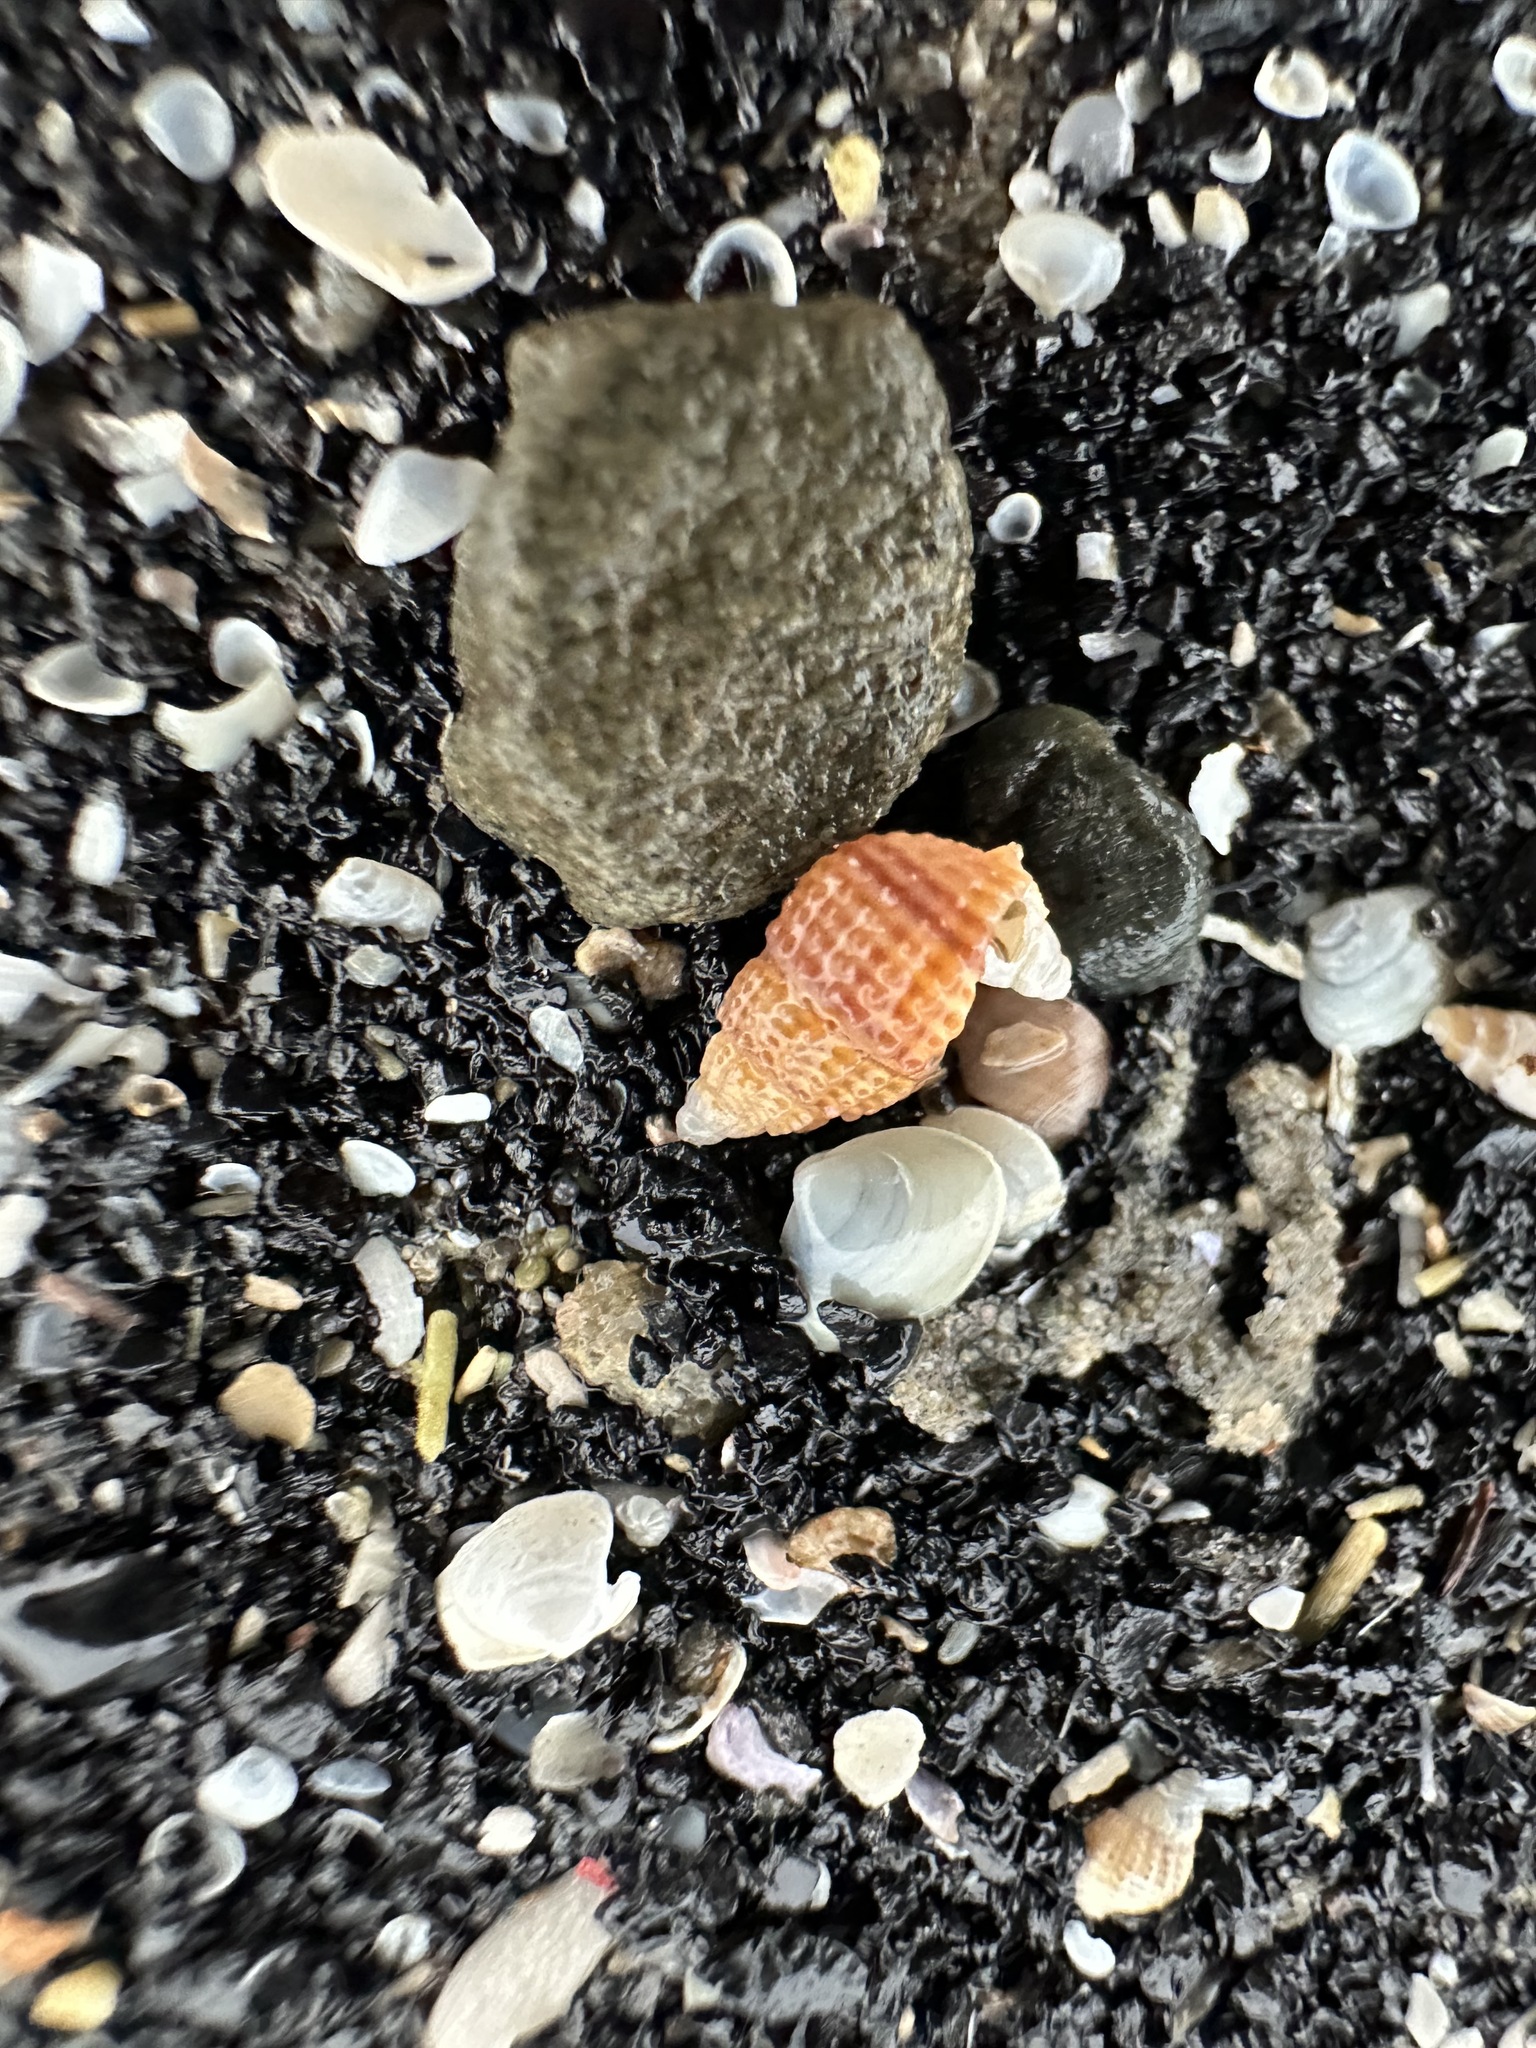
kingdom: Animalia
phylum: Mollusca
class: Gastropoda
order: Neogastropoda
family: Nassariidae
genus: Ilyanassa
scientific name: Ilyanassa trivittata
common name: Three-line mudsnail
